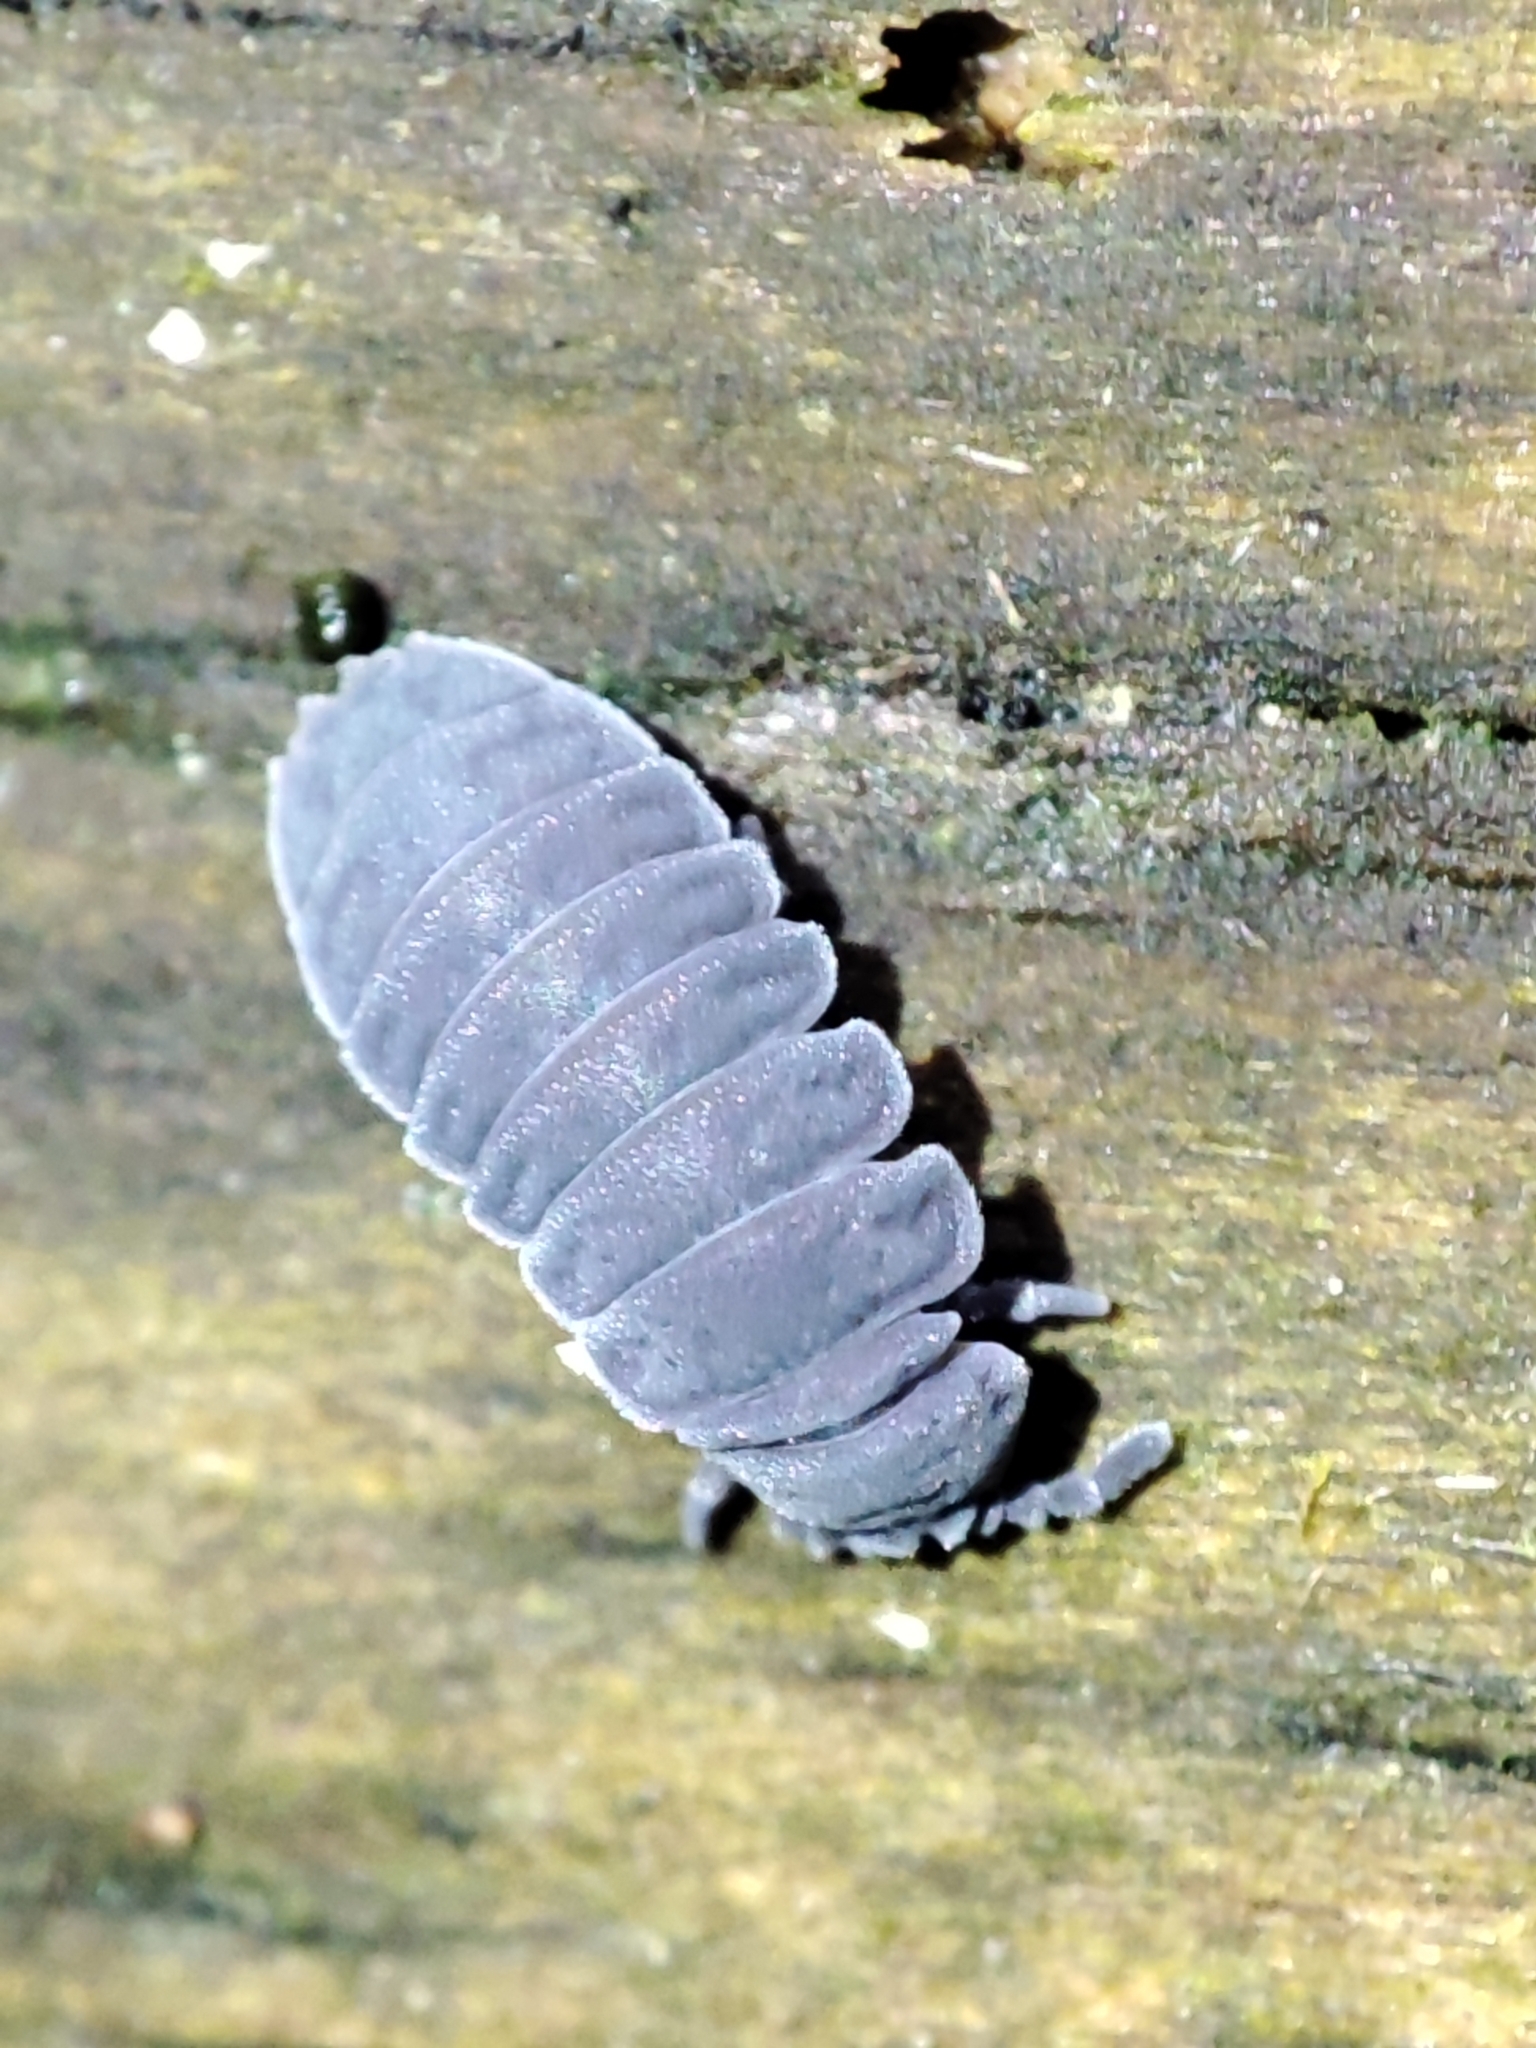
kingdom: Animalia
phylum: Arthropoda
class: Collembola
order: Poduromorpha
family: Onychiuridae
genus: Tetrodontophora
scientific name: Tetrodontophora bielanensis
